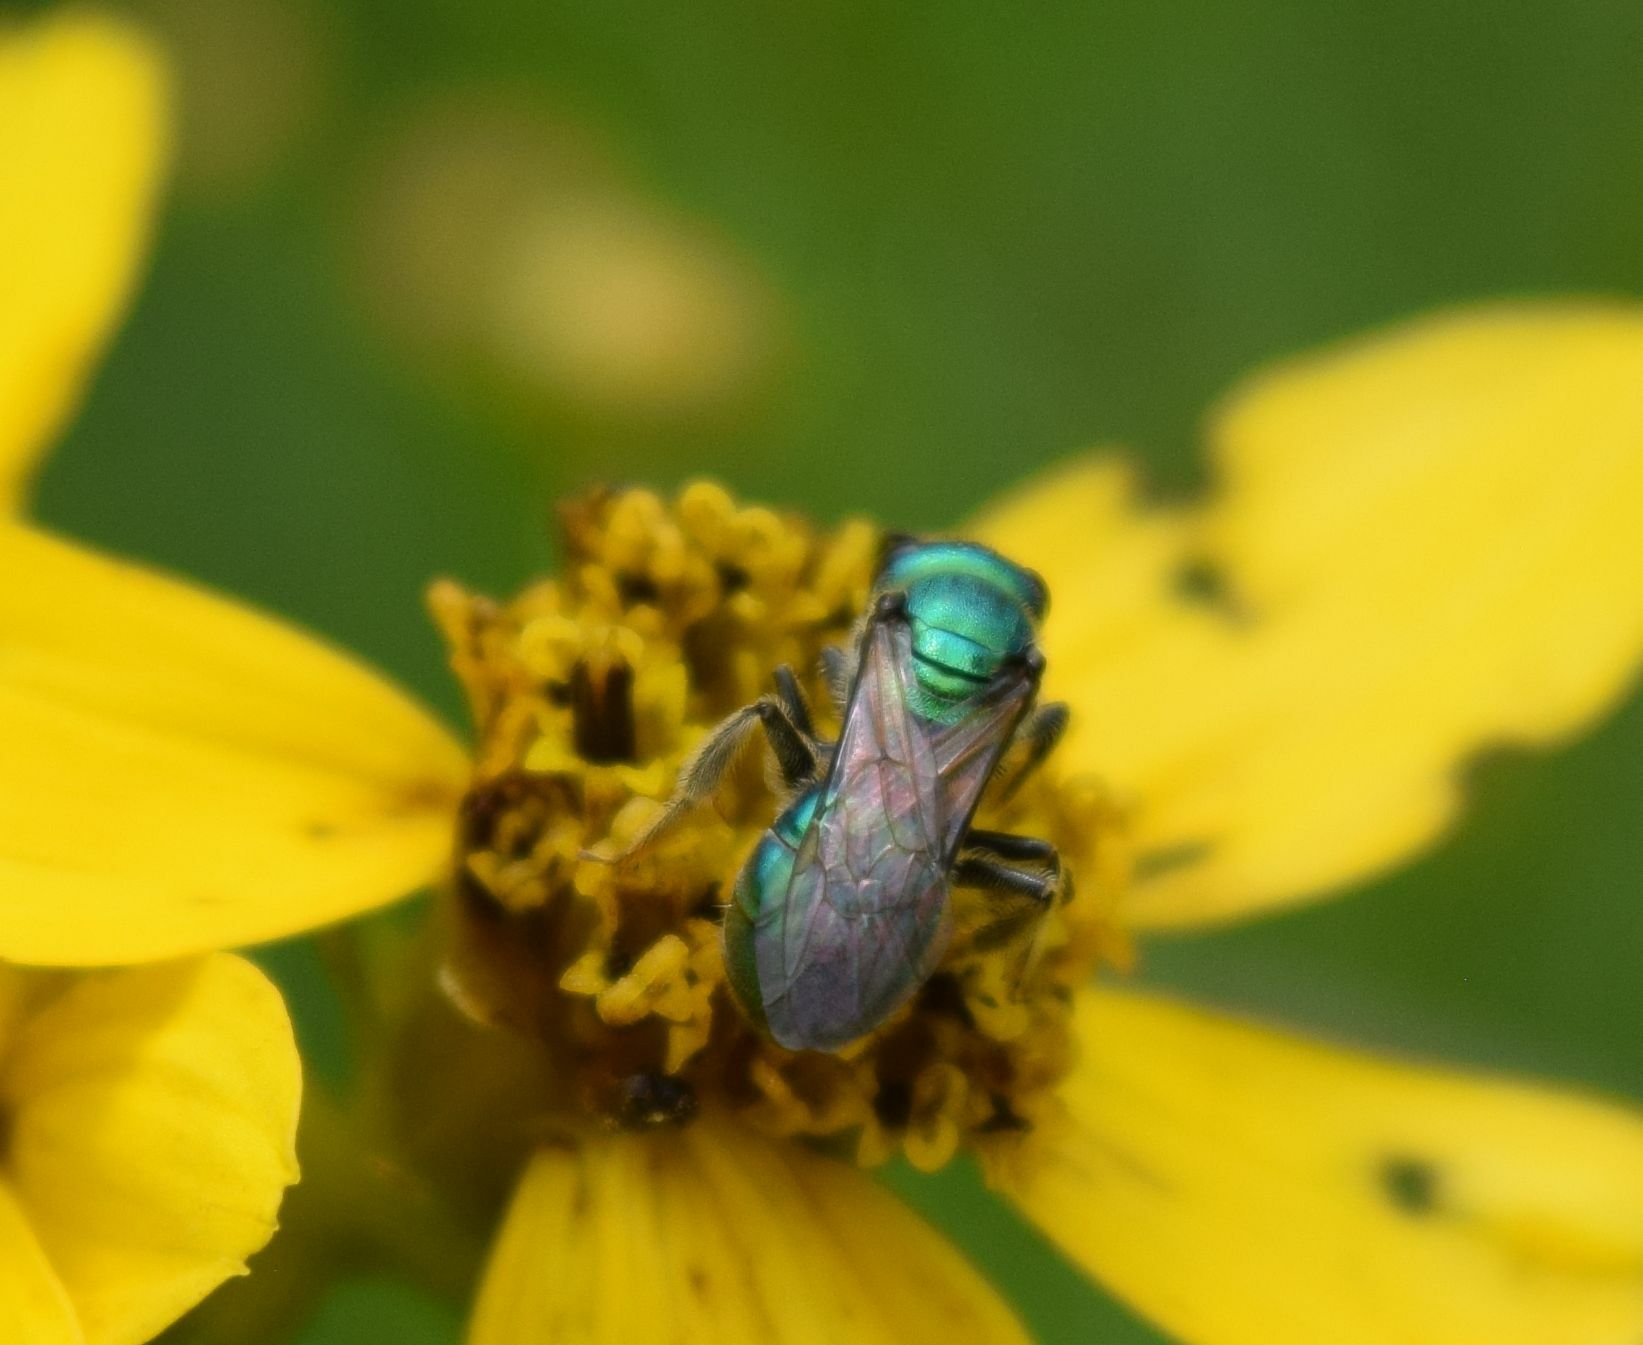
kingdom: Animalia
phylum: Arthropoda
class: Insecta
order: Hymenoptera
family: Halictidae
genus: Augochlora
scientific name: Augochlora pura
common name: Pure green sweat bee
